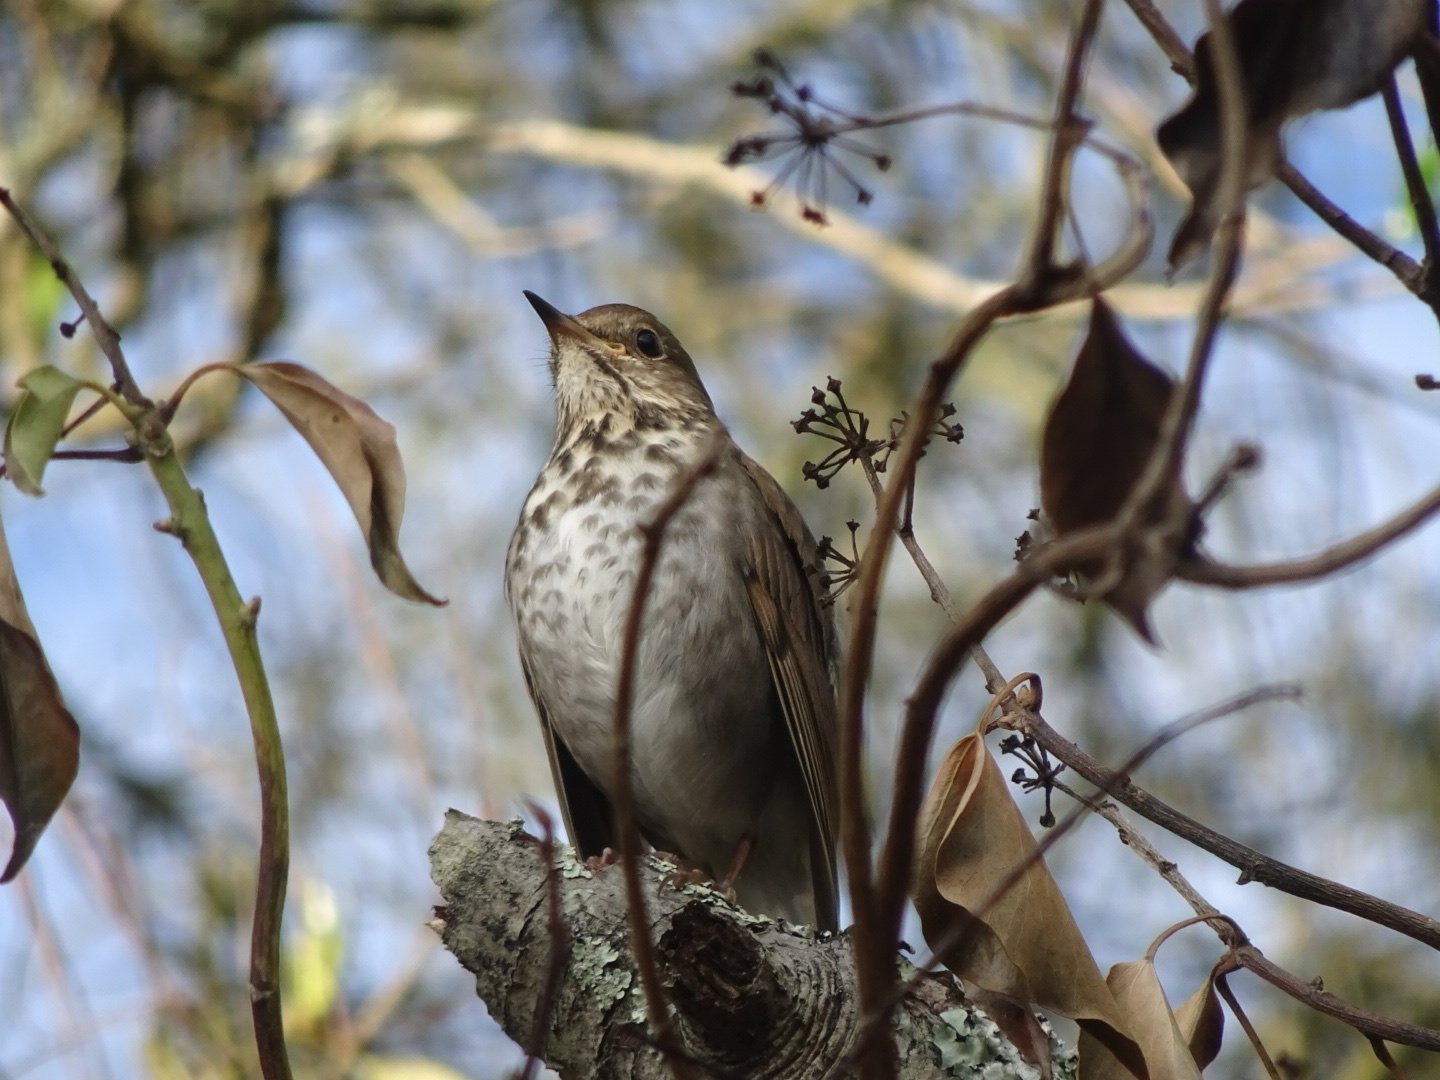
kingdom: Animalia
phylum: Chordata
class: Aves
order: Passeriformes
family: Turdidae
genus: Catharus
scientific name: Catharus guttatus
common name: Hermit thrush
